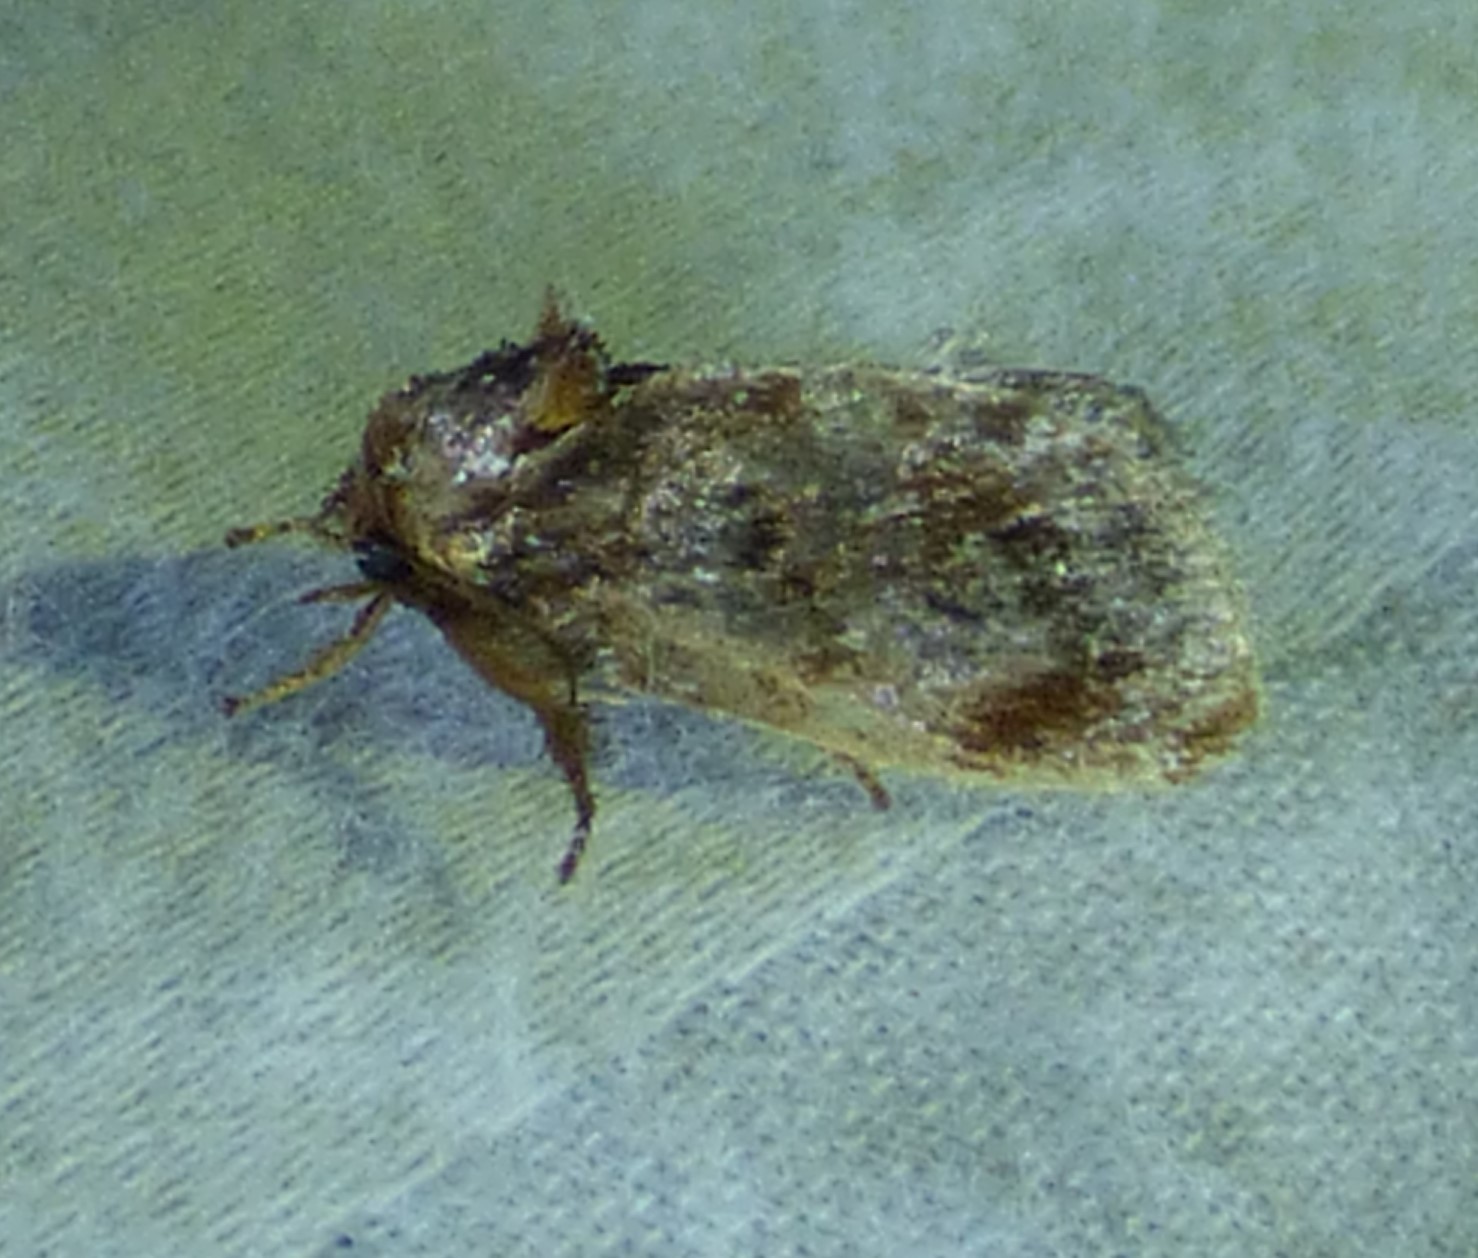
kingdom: Animalia
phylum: Arthropoda
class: Insecta
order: Lepidoptera
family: Limacodidae
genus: Isochaetes
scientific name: Isochaetes beutenmuelleri
